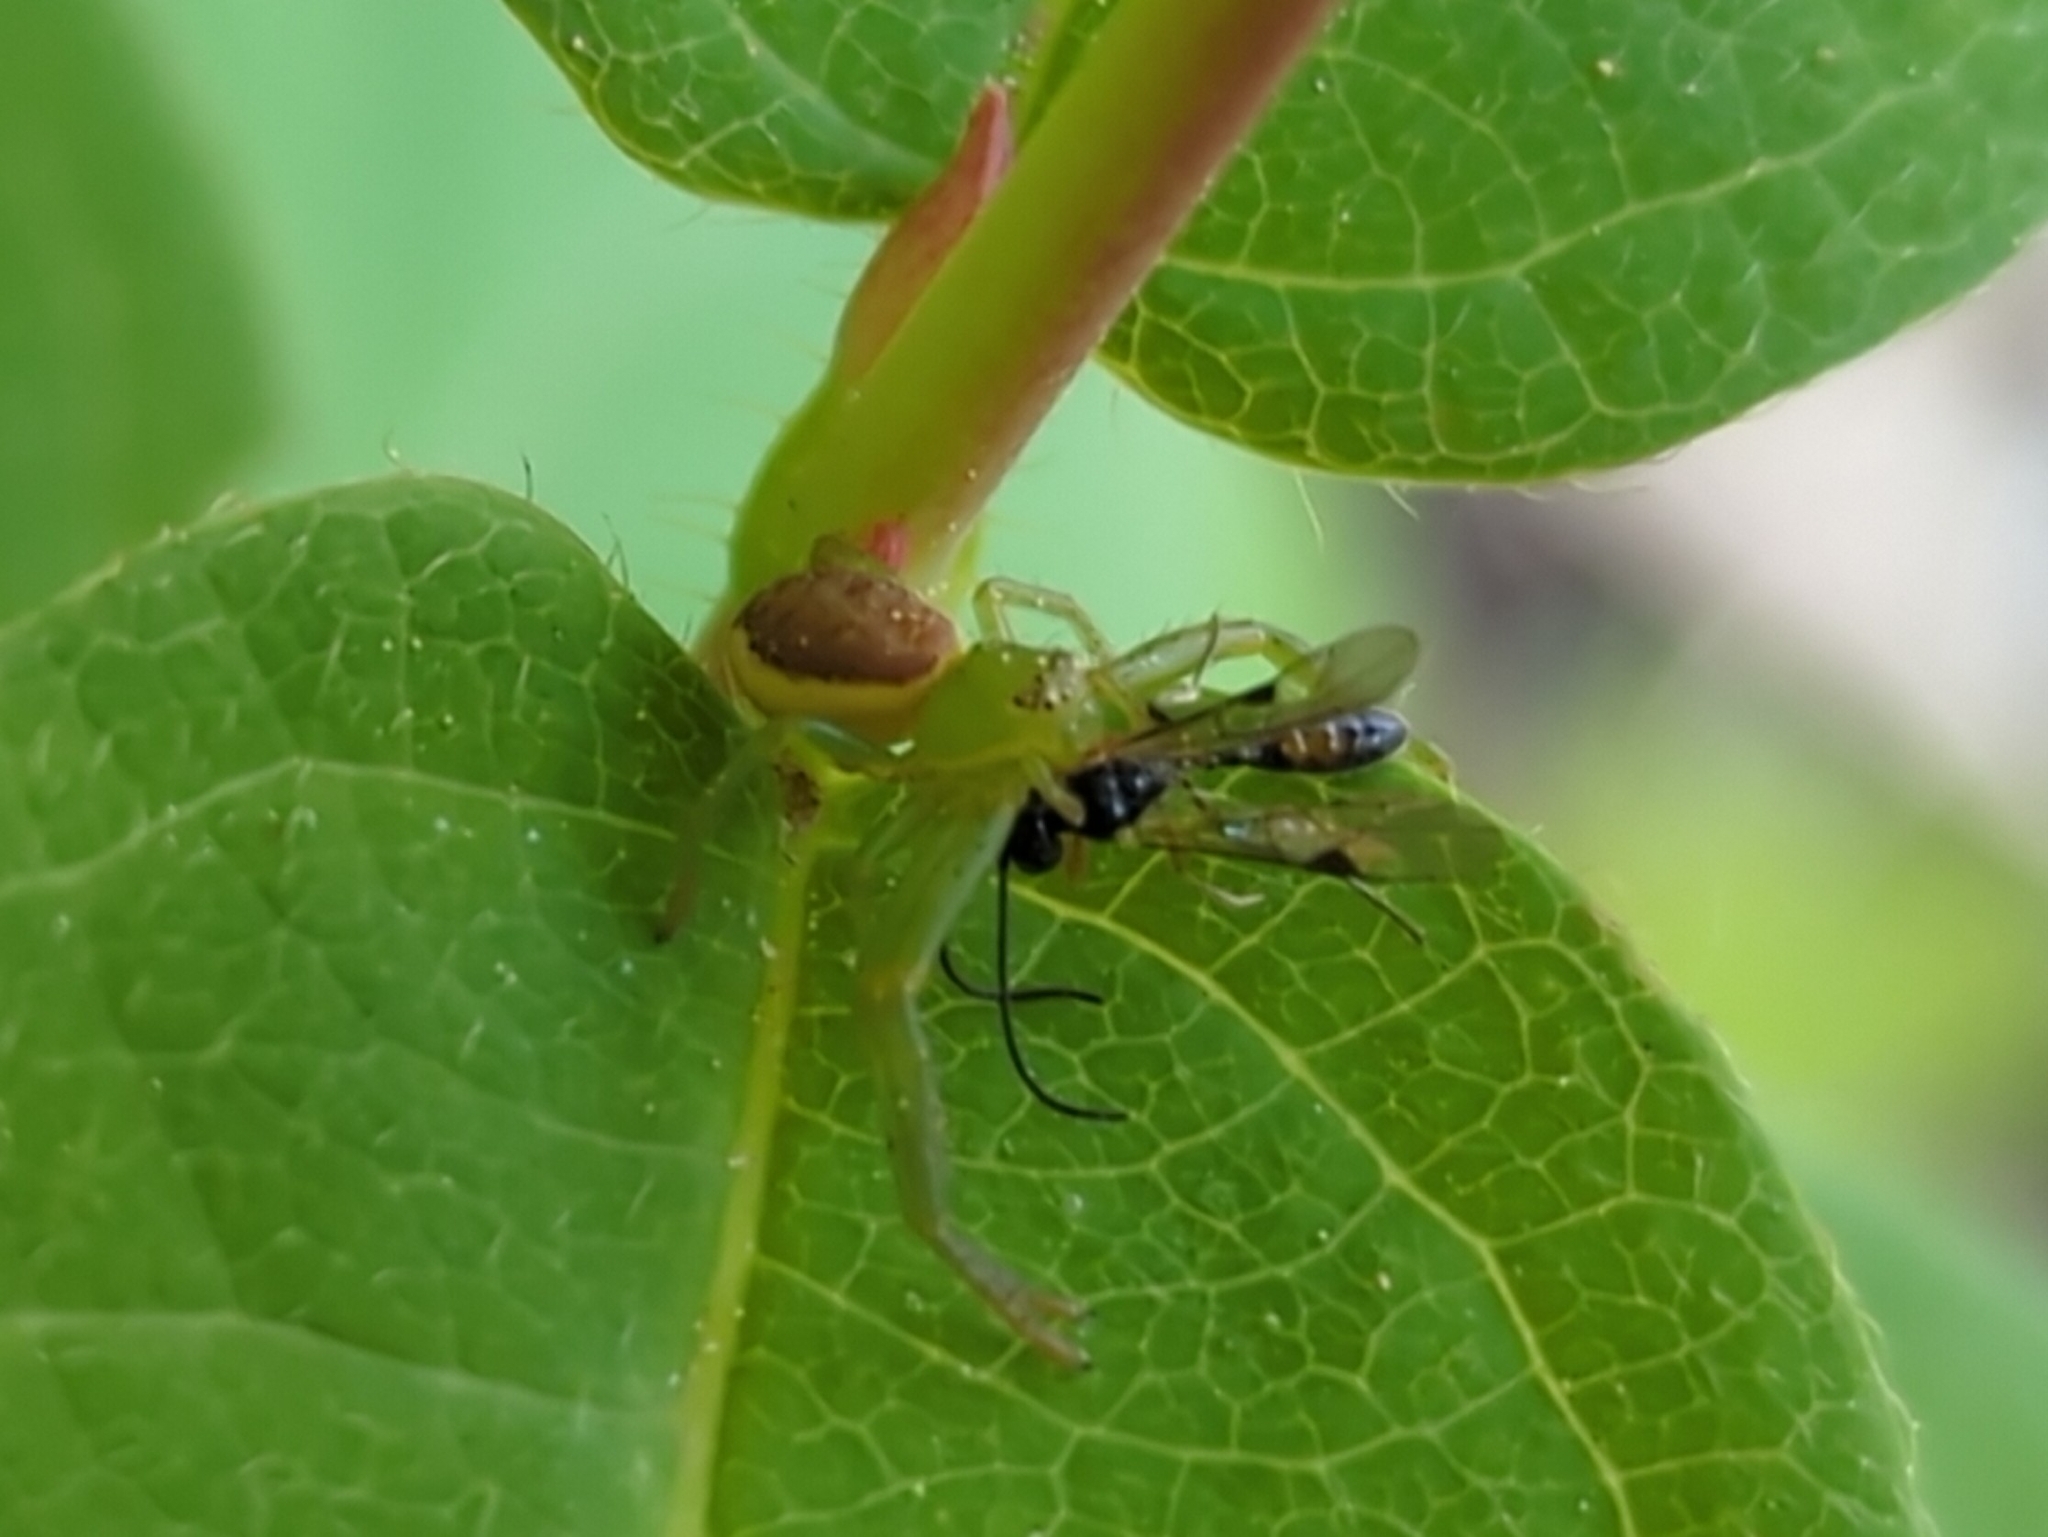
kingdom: Animalia
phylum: Arthropoda
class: Arachnida
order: Araneae
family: Thomisidae
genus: Diaea
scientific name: Diaea dorsata
